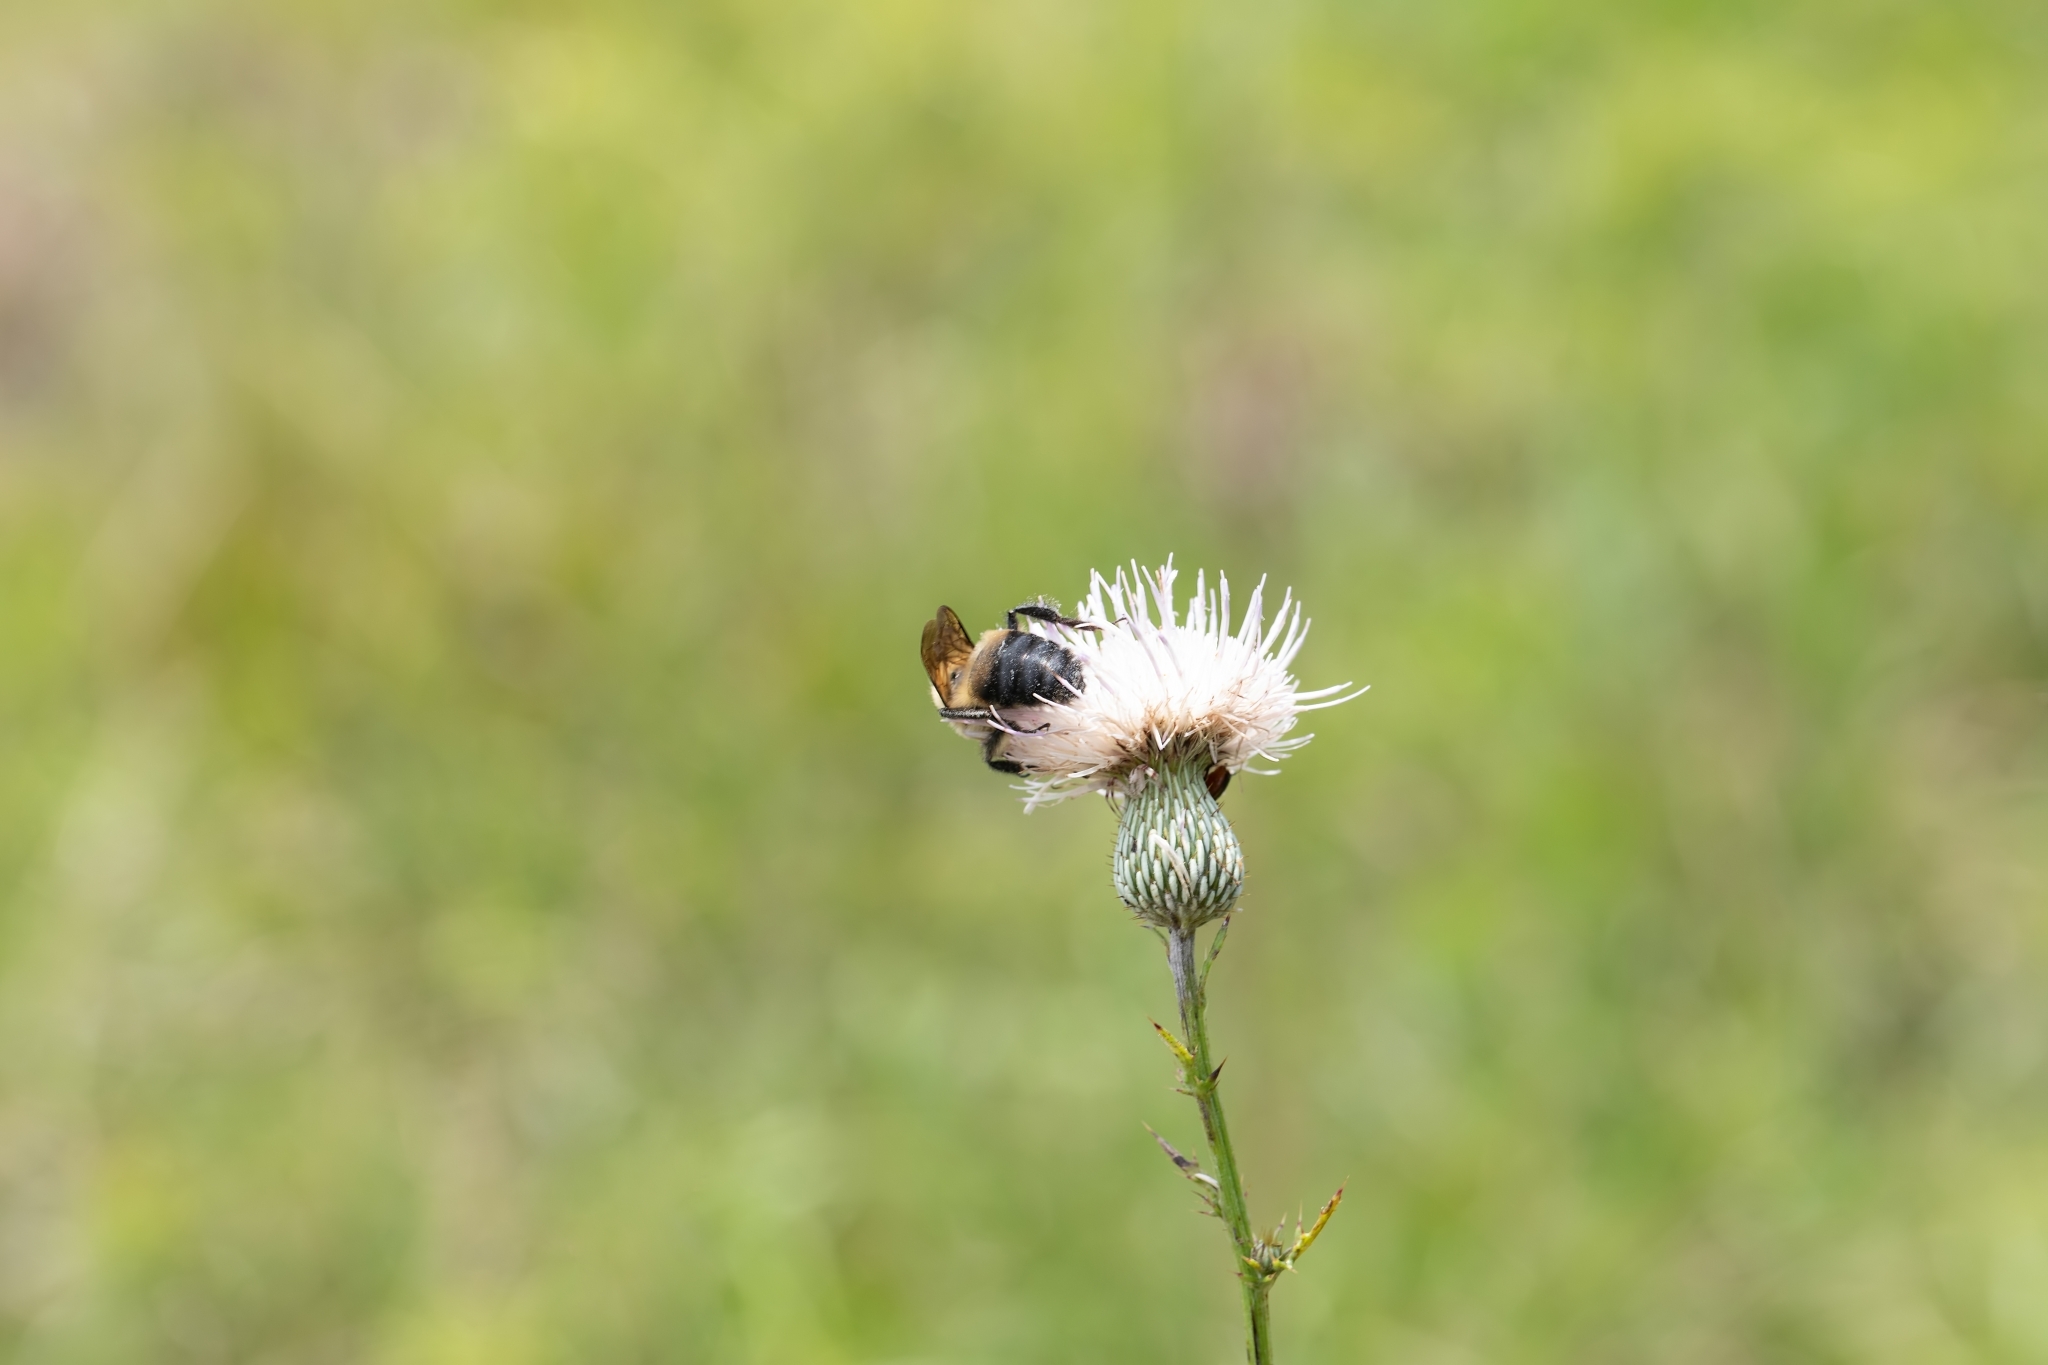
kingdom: Animalia
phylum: Arthropoda
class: Insecta
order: Hymenoptera
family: Apidae
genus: Bombus
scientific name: Bombus griseocollis
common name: Brown-belted bumble bee
